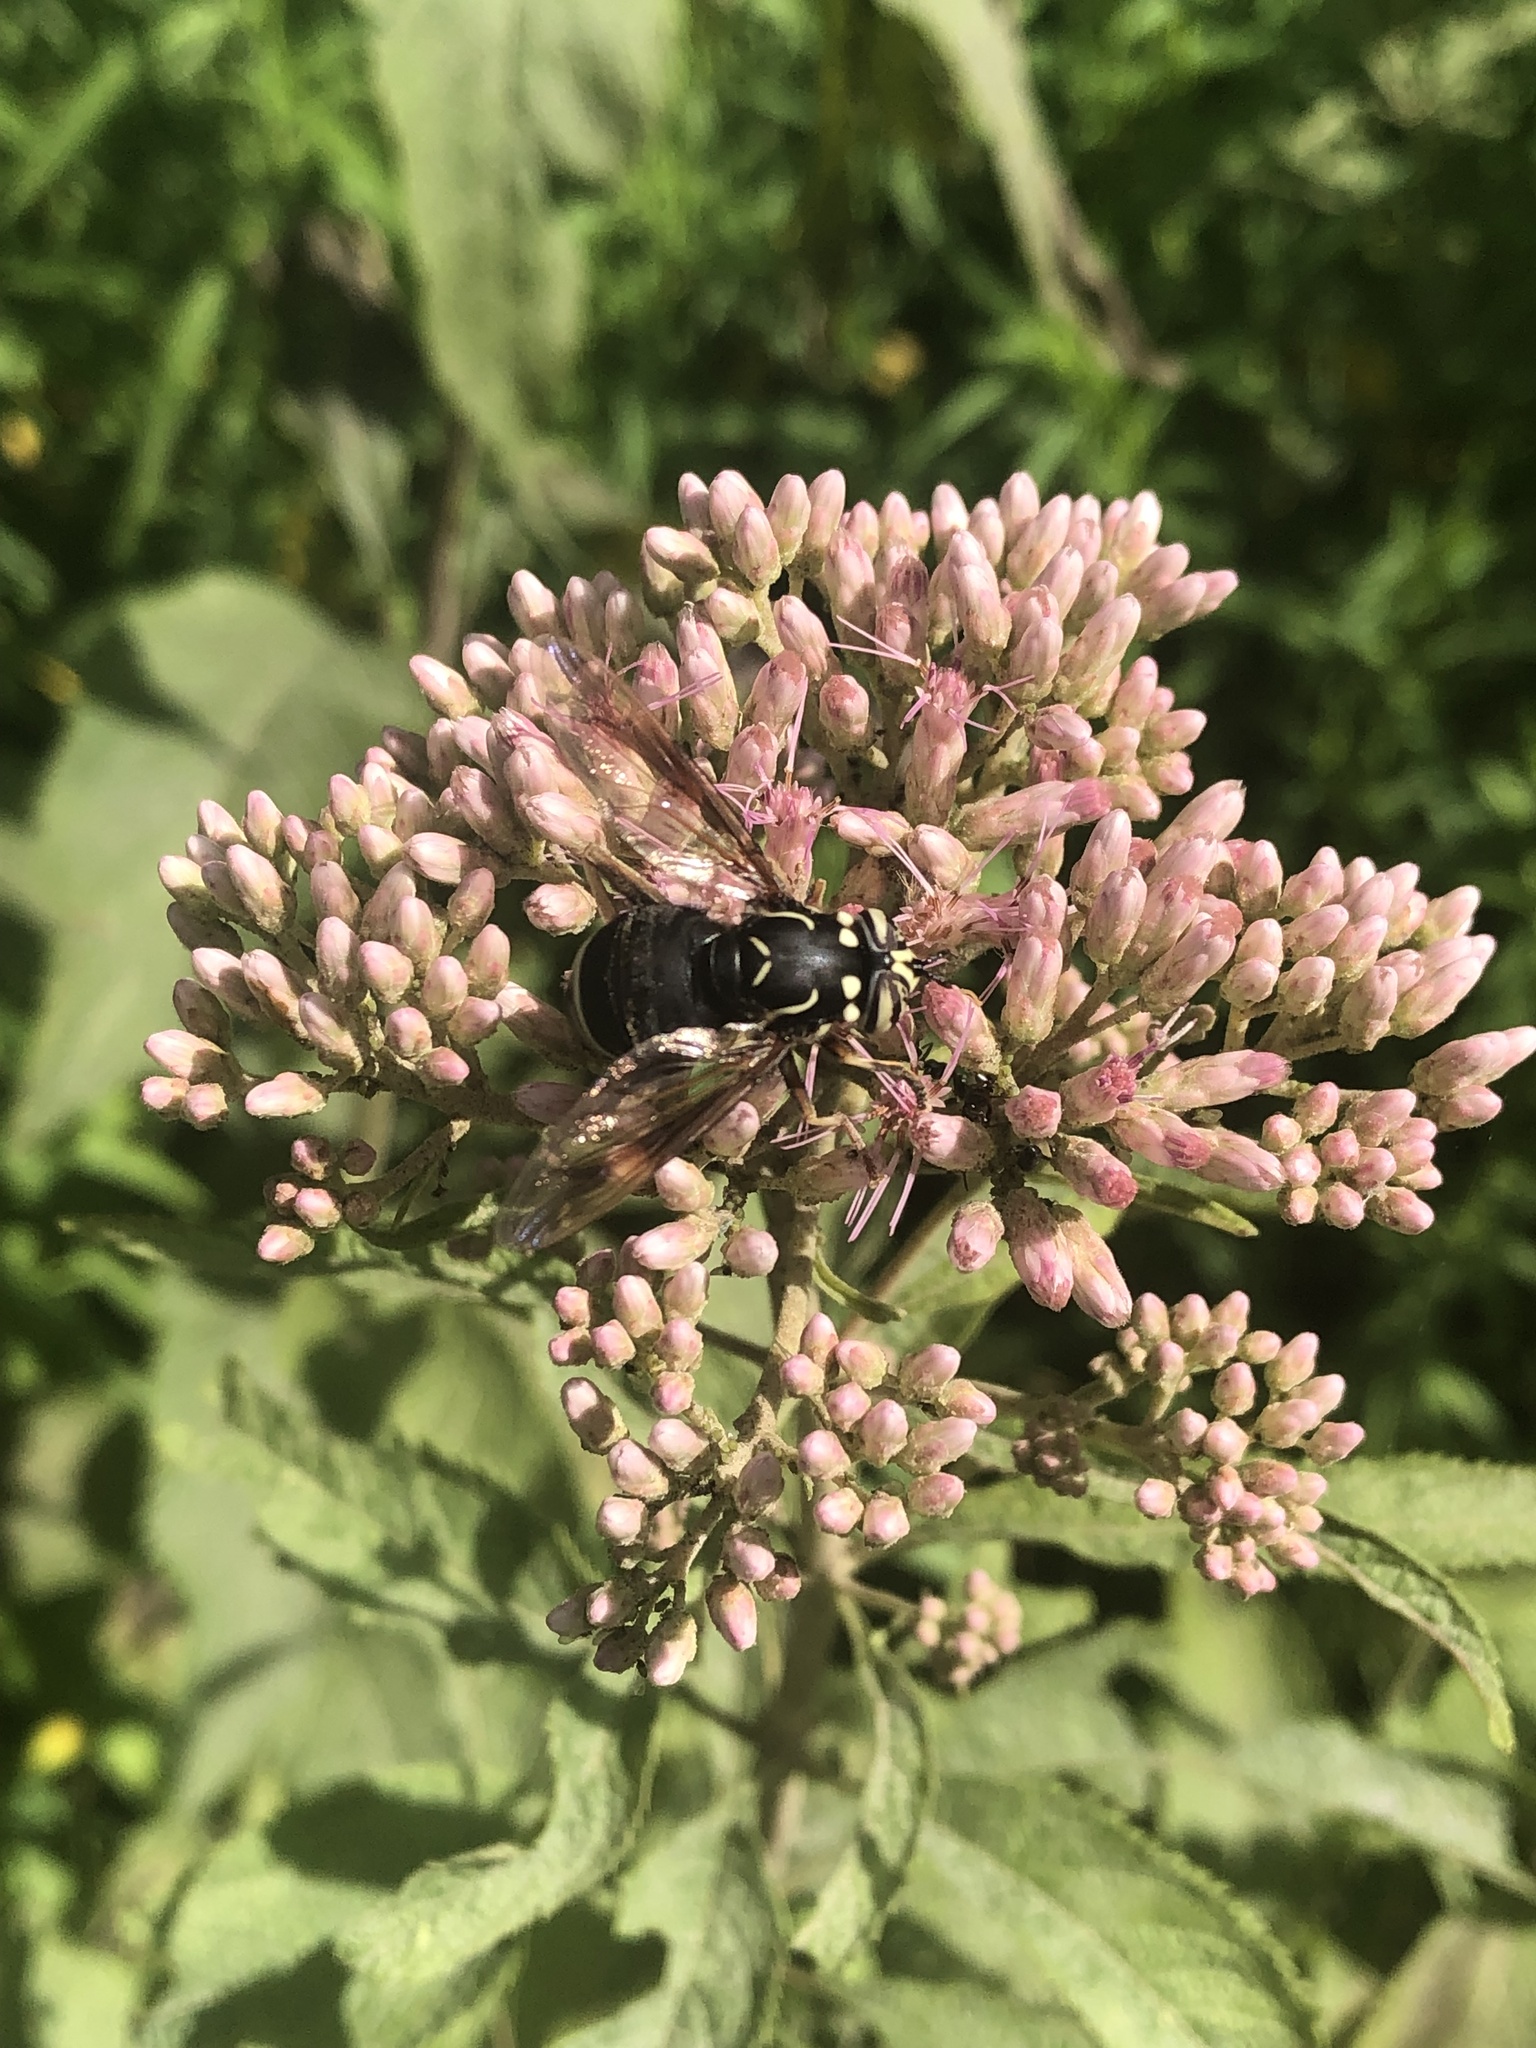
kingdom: Animalia
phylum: Arthropoda
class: Insecta
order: Diptera
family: Syrphidae
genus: Spilomyia
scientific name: Spilomyia fusca
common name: Bald-faced hornet fly
